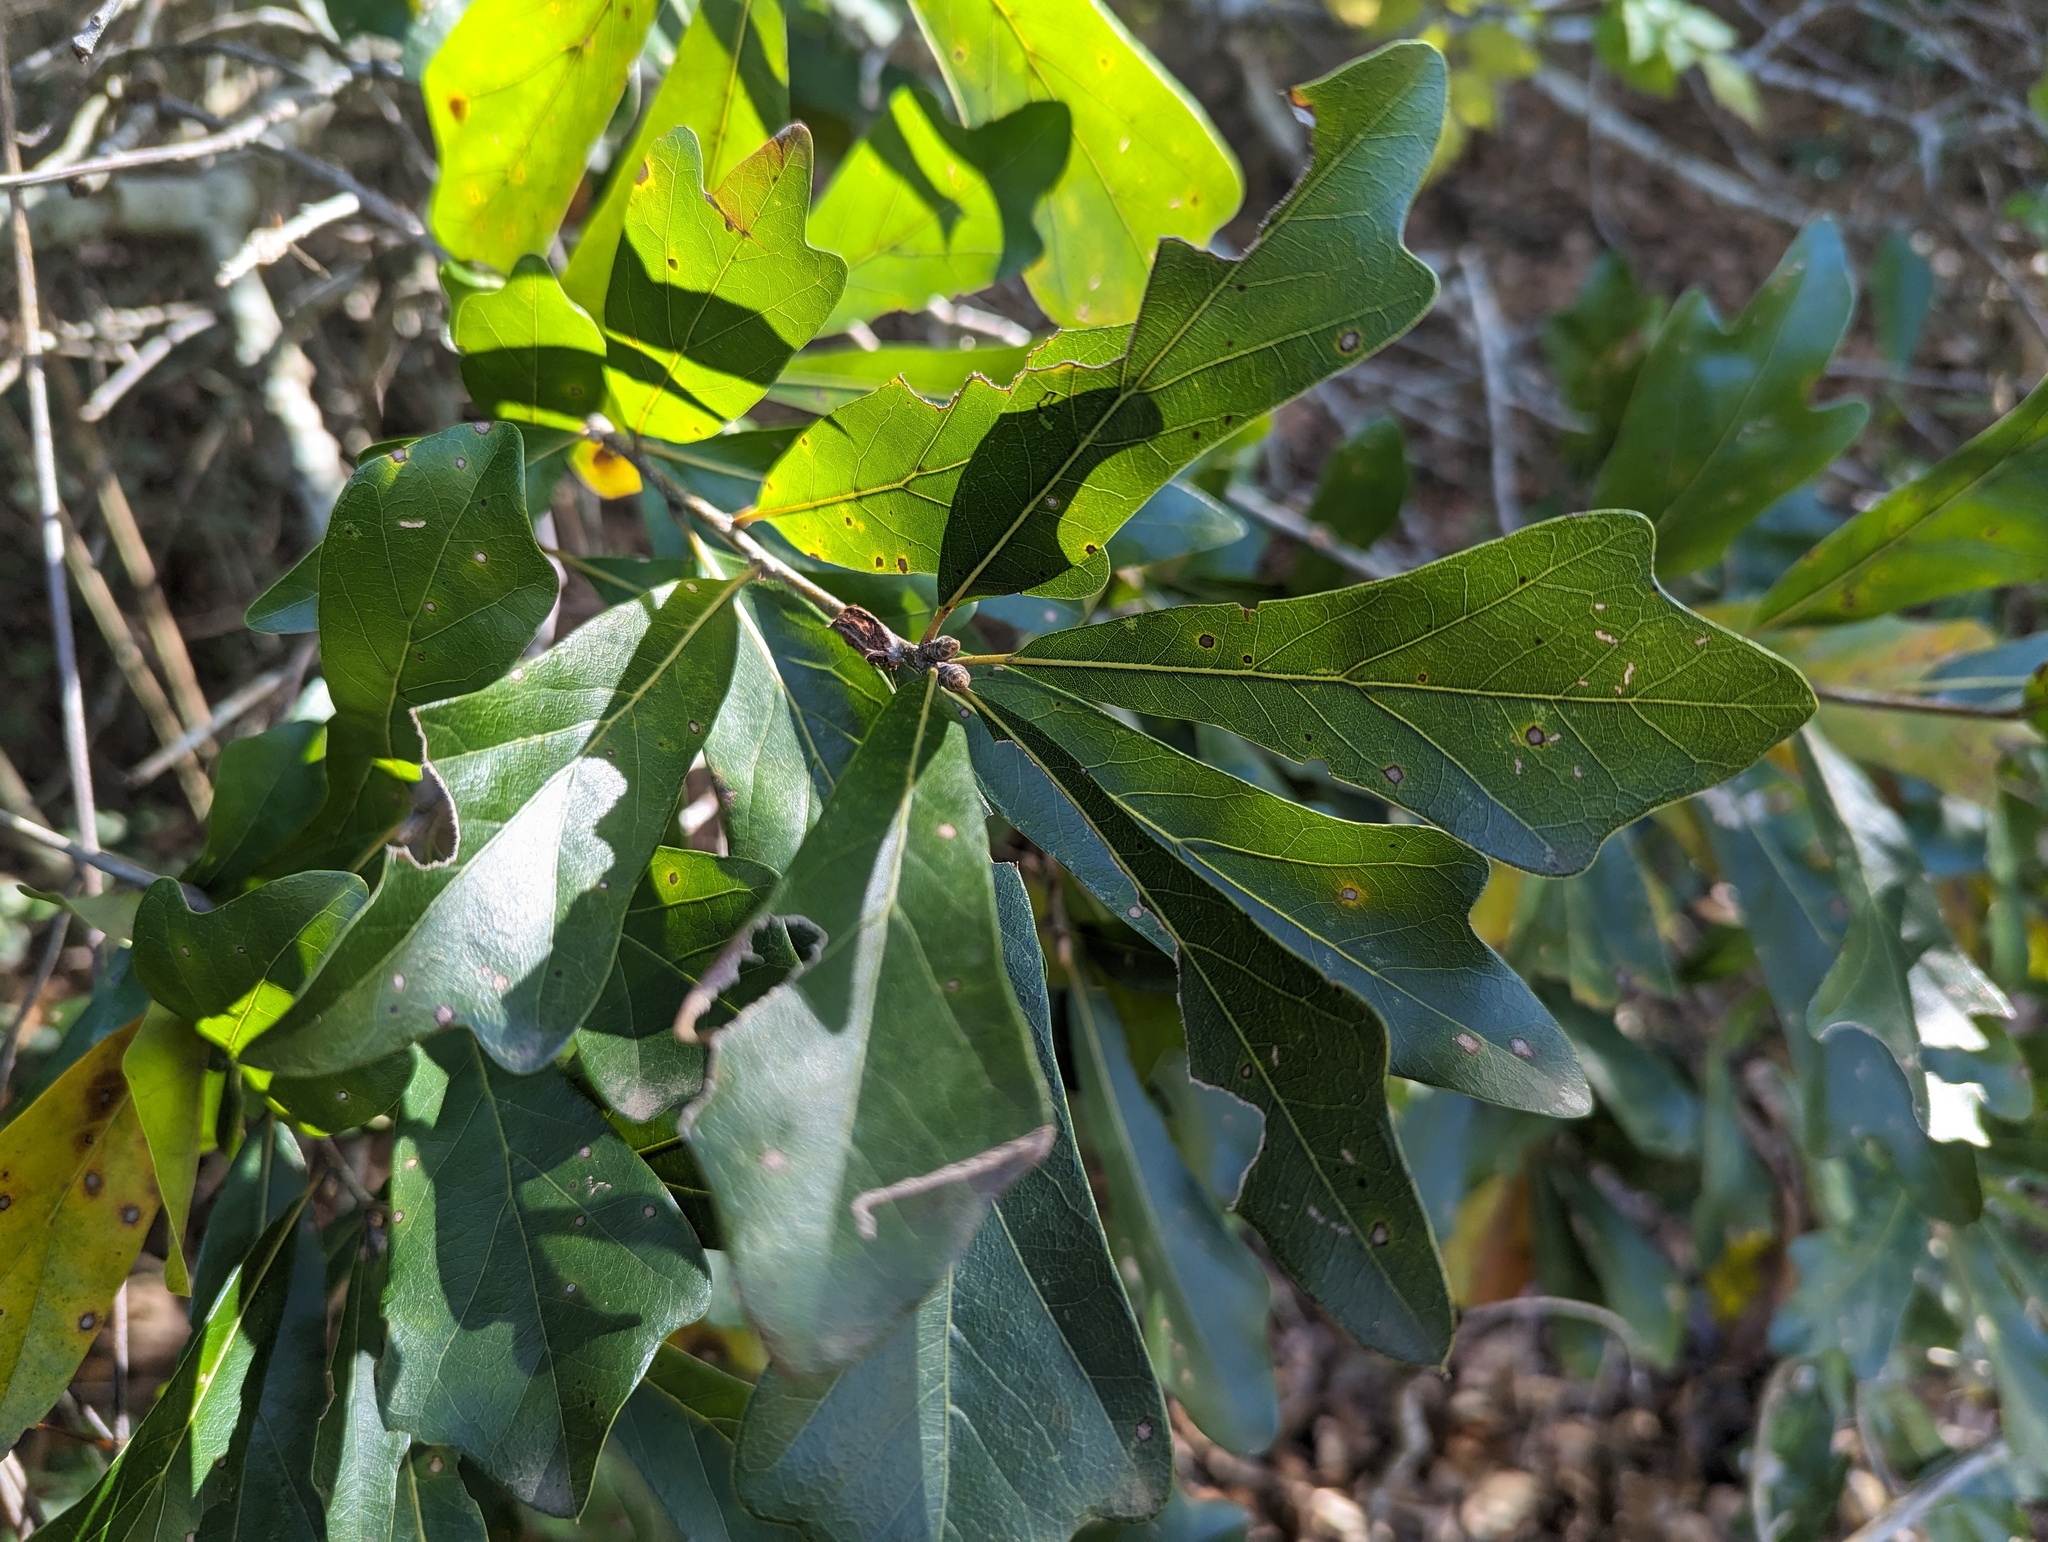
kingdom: Plantae
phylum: Tracheophyta
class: Magnoliopsida
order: Fagales
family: Fagaceae
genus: Quercus
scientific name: Quercus nigra
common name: Water oak
